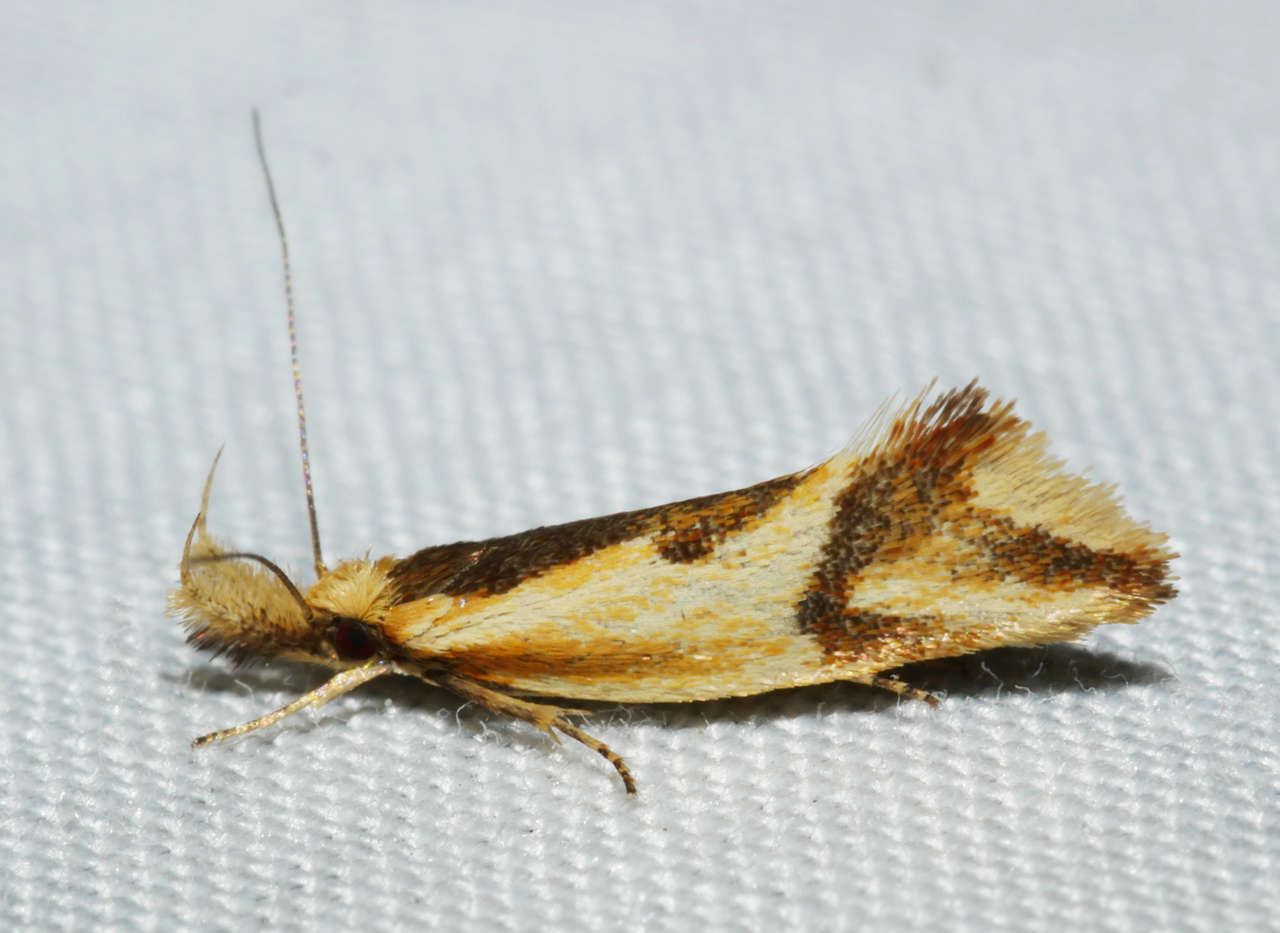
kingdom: Animalia
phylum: Arthropoda
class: Insecta
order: Lepidoptera
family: Oecophoridae
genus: Thema
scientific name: Thema chlorochyta
